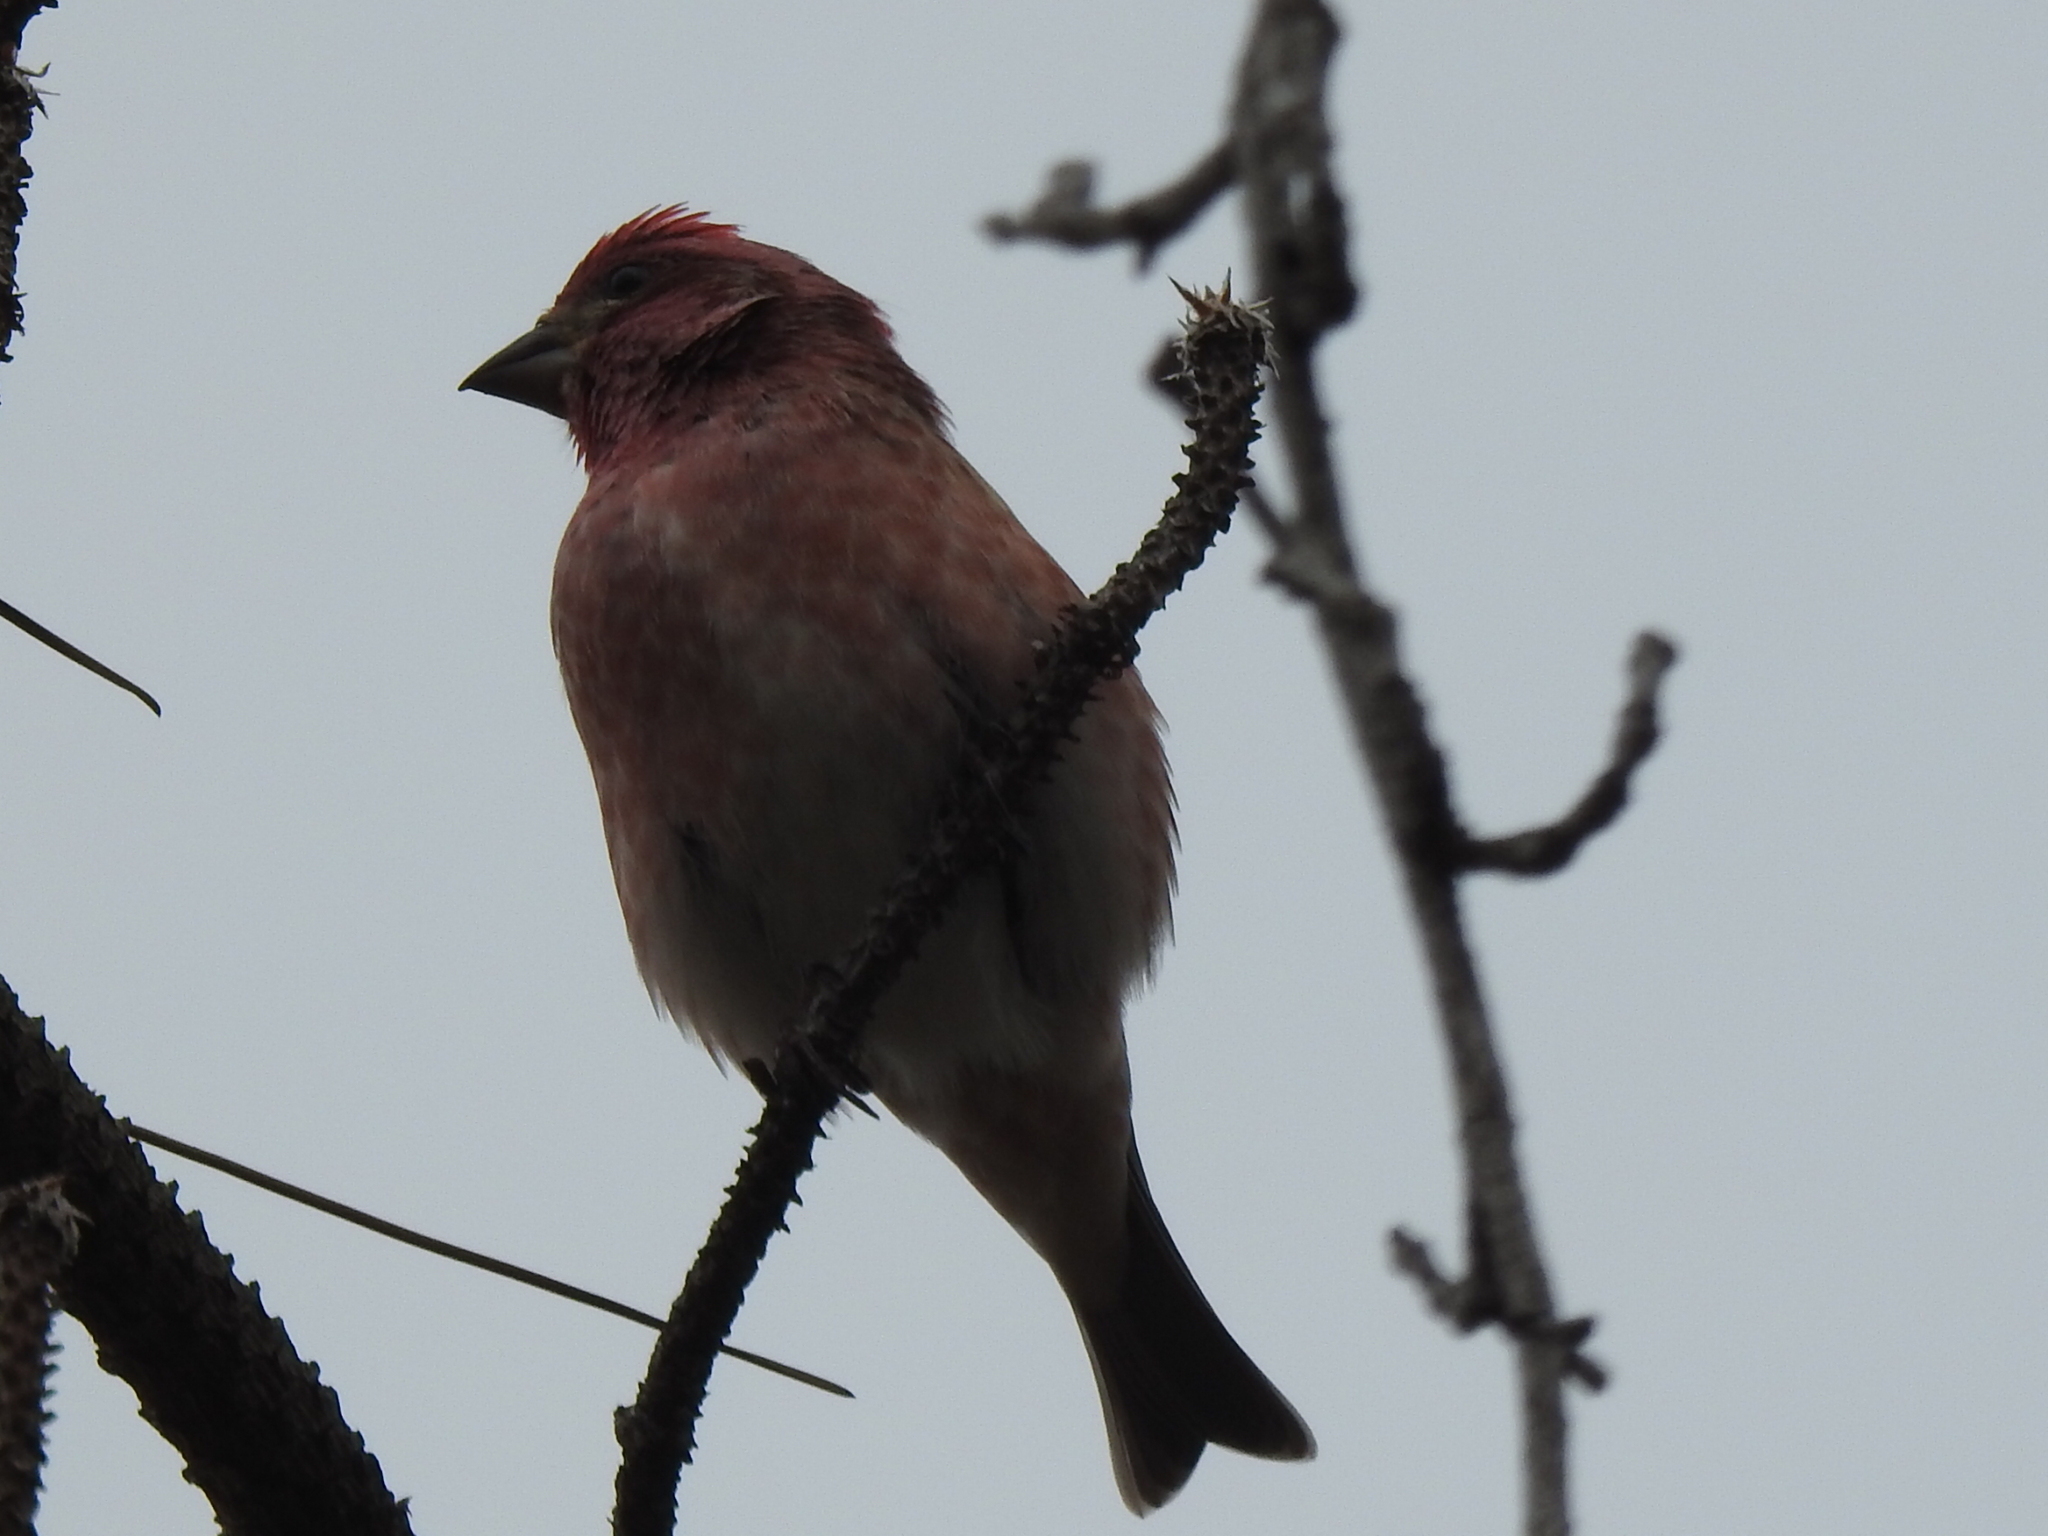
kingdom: Animalia
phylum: Chordata
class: Aves
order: Passeriformes
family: Fringillidae
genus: Haemorhous
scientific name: Haemorhous purpureus
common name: Purple finch
